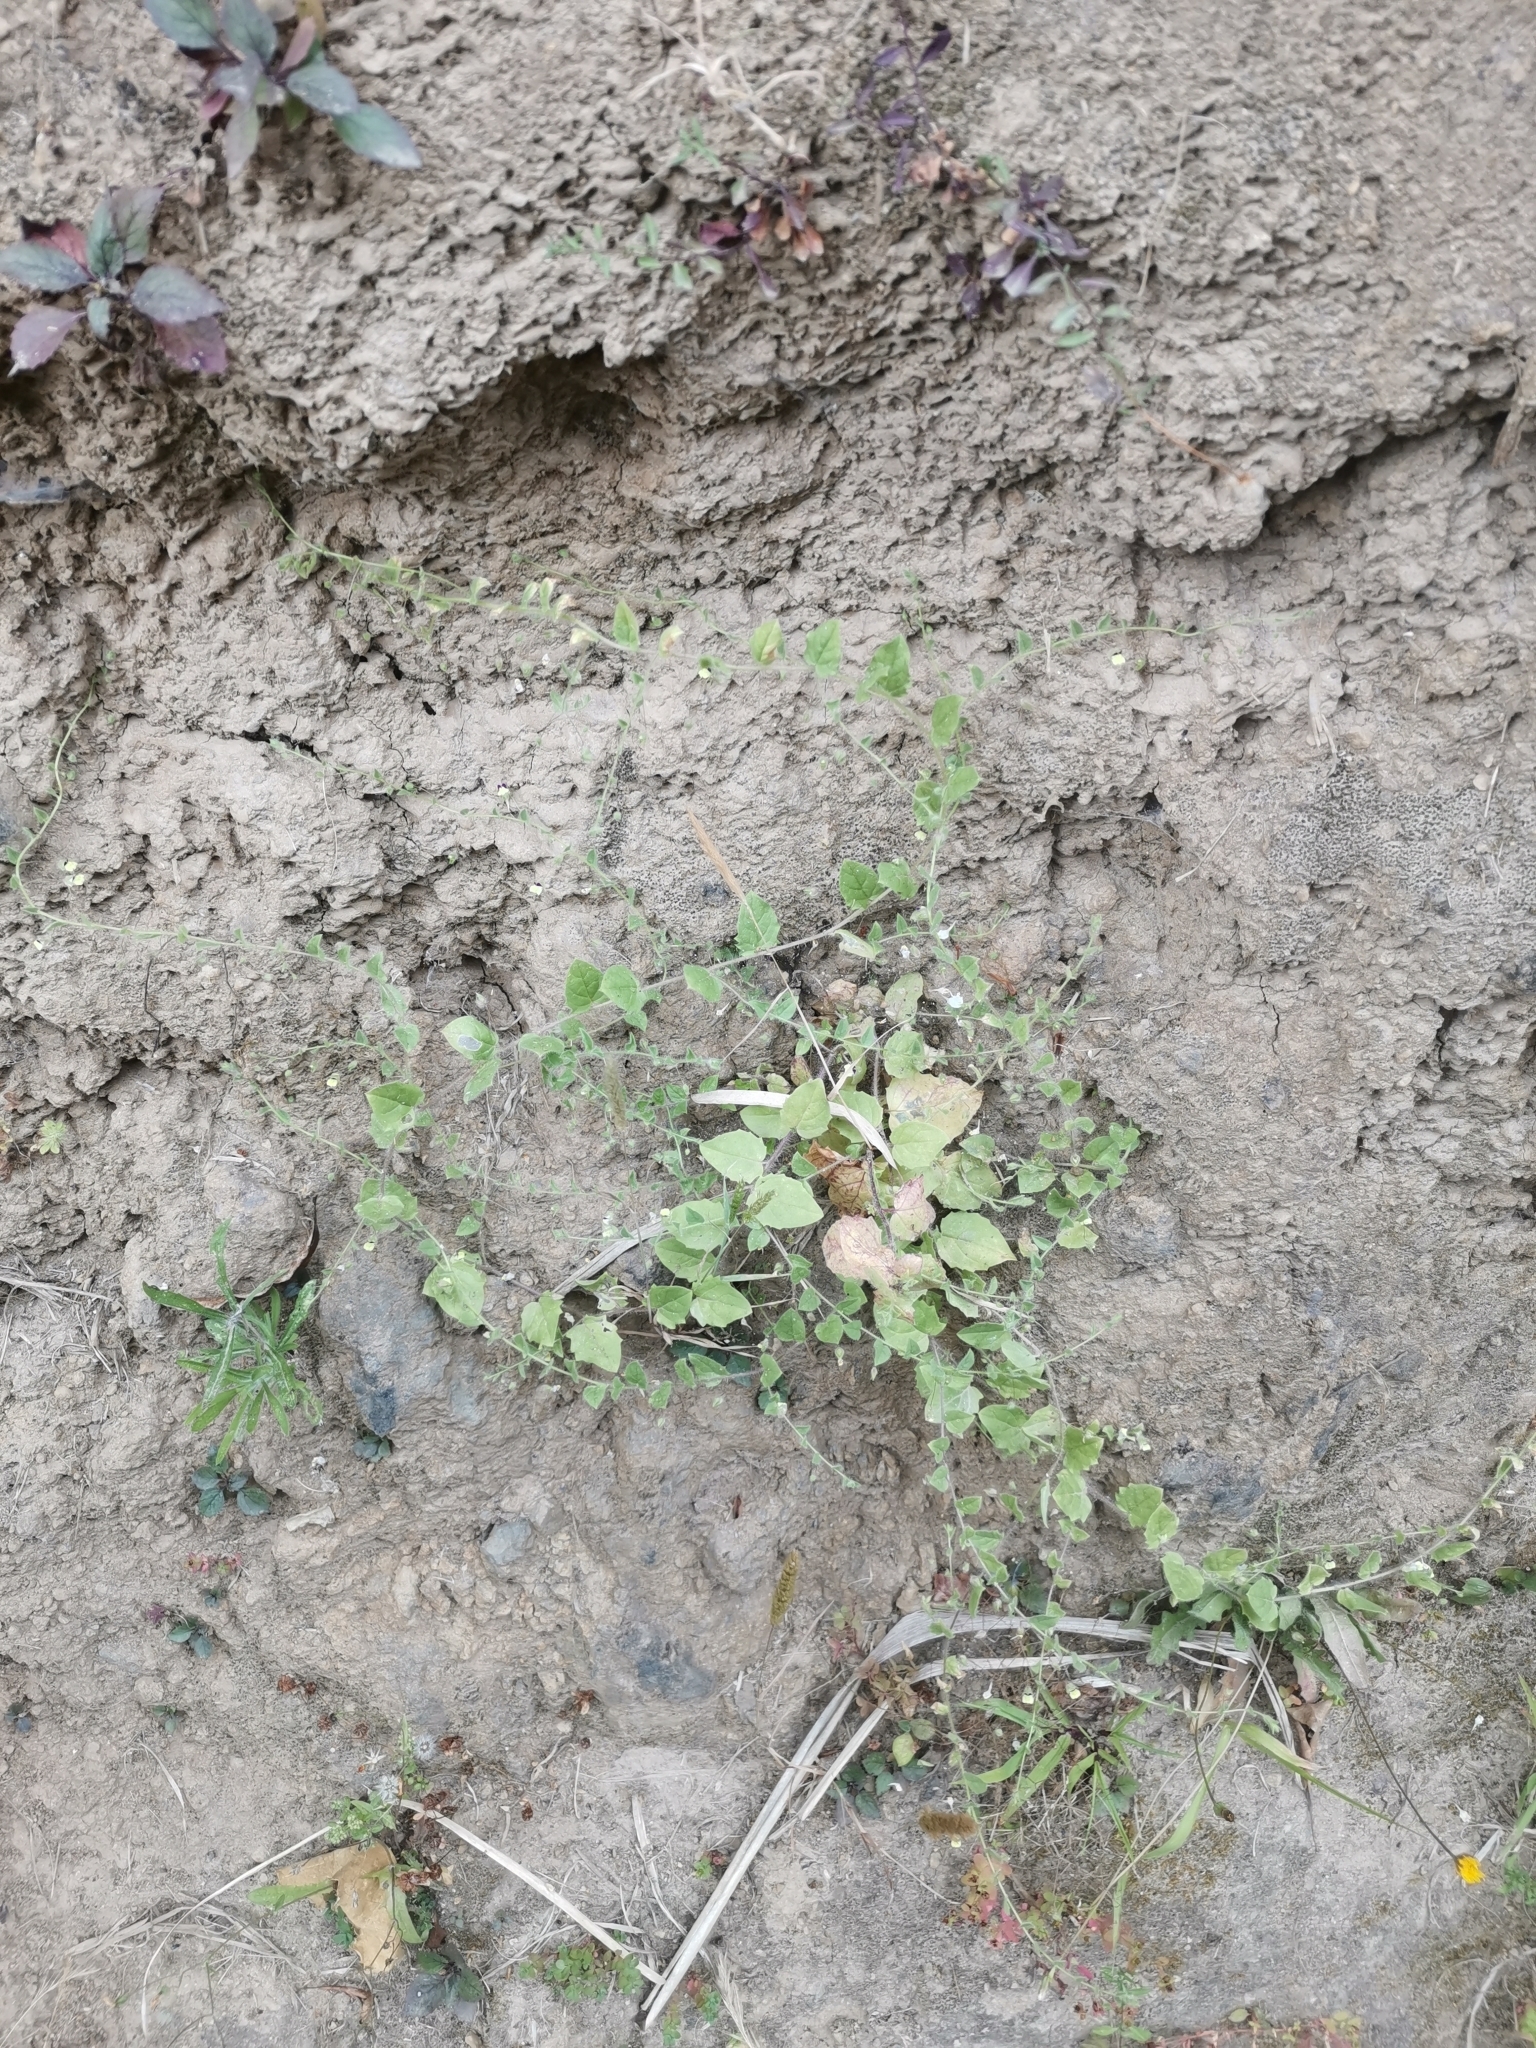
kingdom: Plantae
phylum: Tracheophyta
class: Magnoliopsida
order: Lamiales
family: Plantaginaceae
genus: Kickxia
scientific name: Kickxia elatine
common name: Sharp-leaved fluellen
